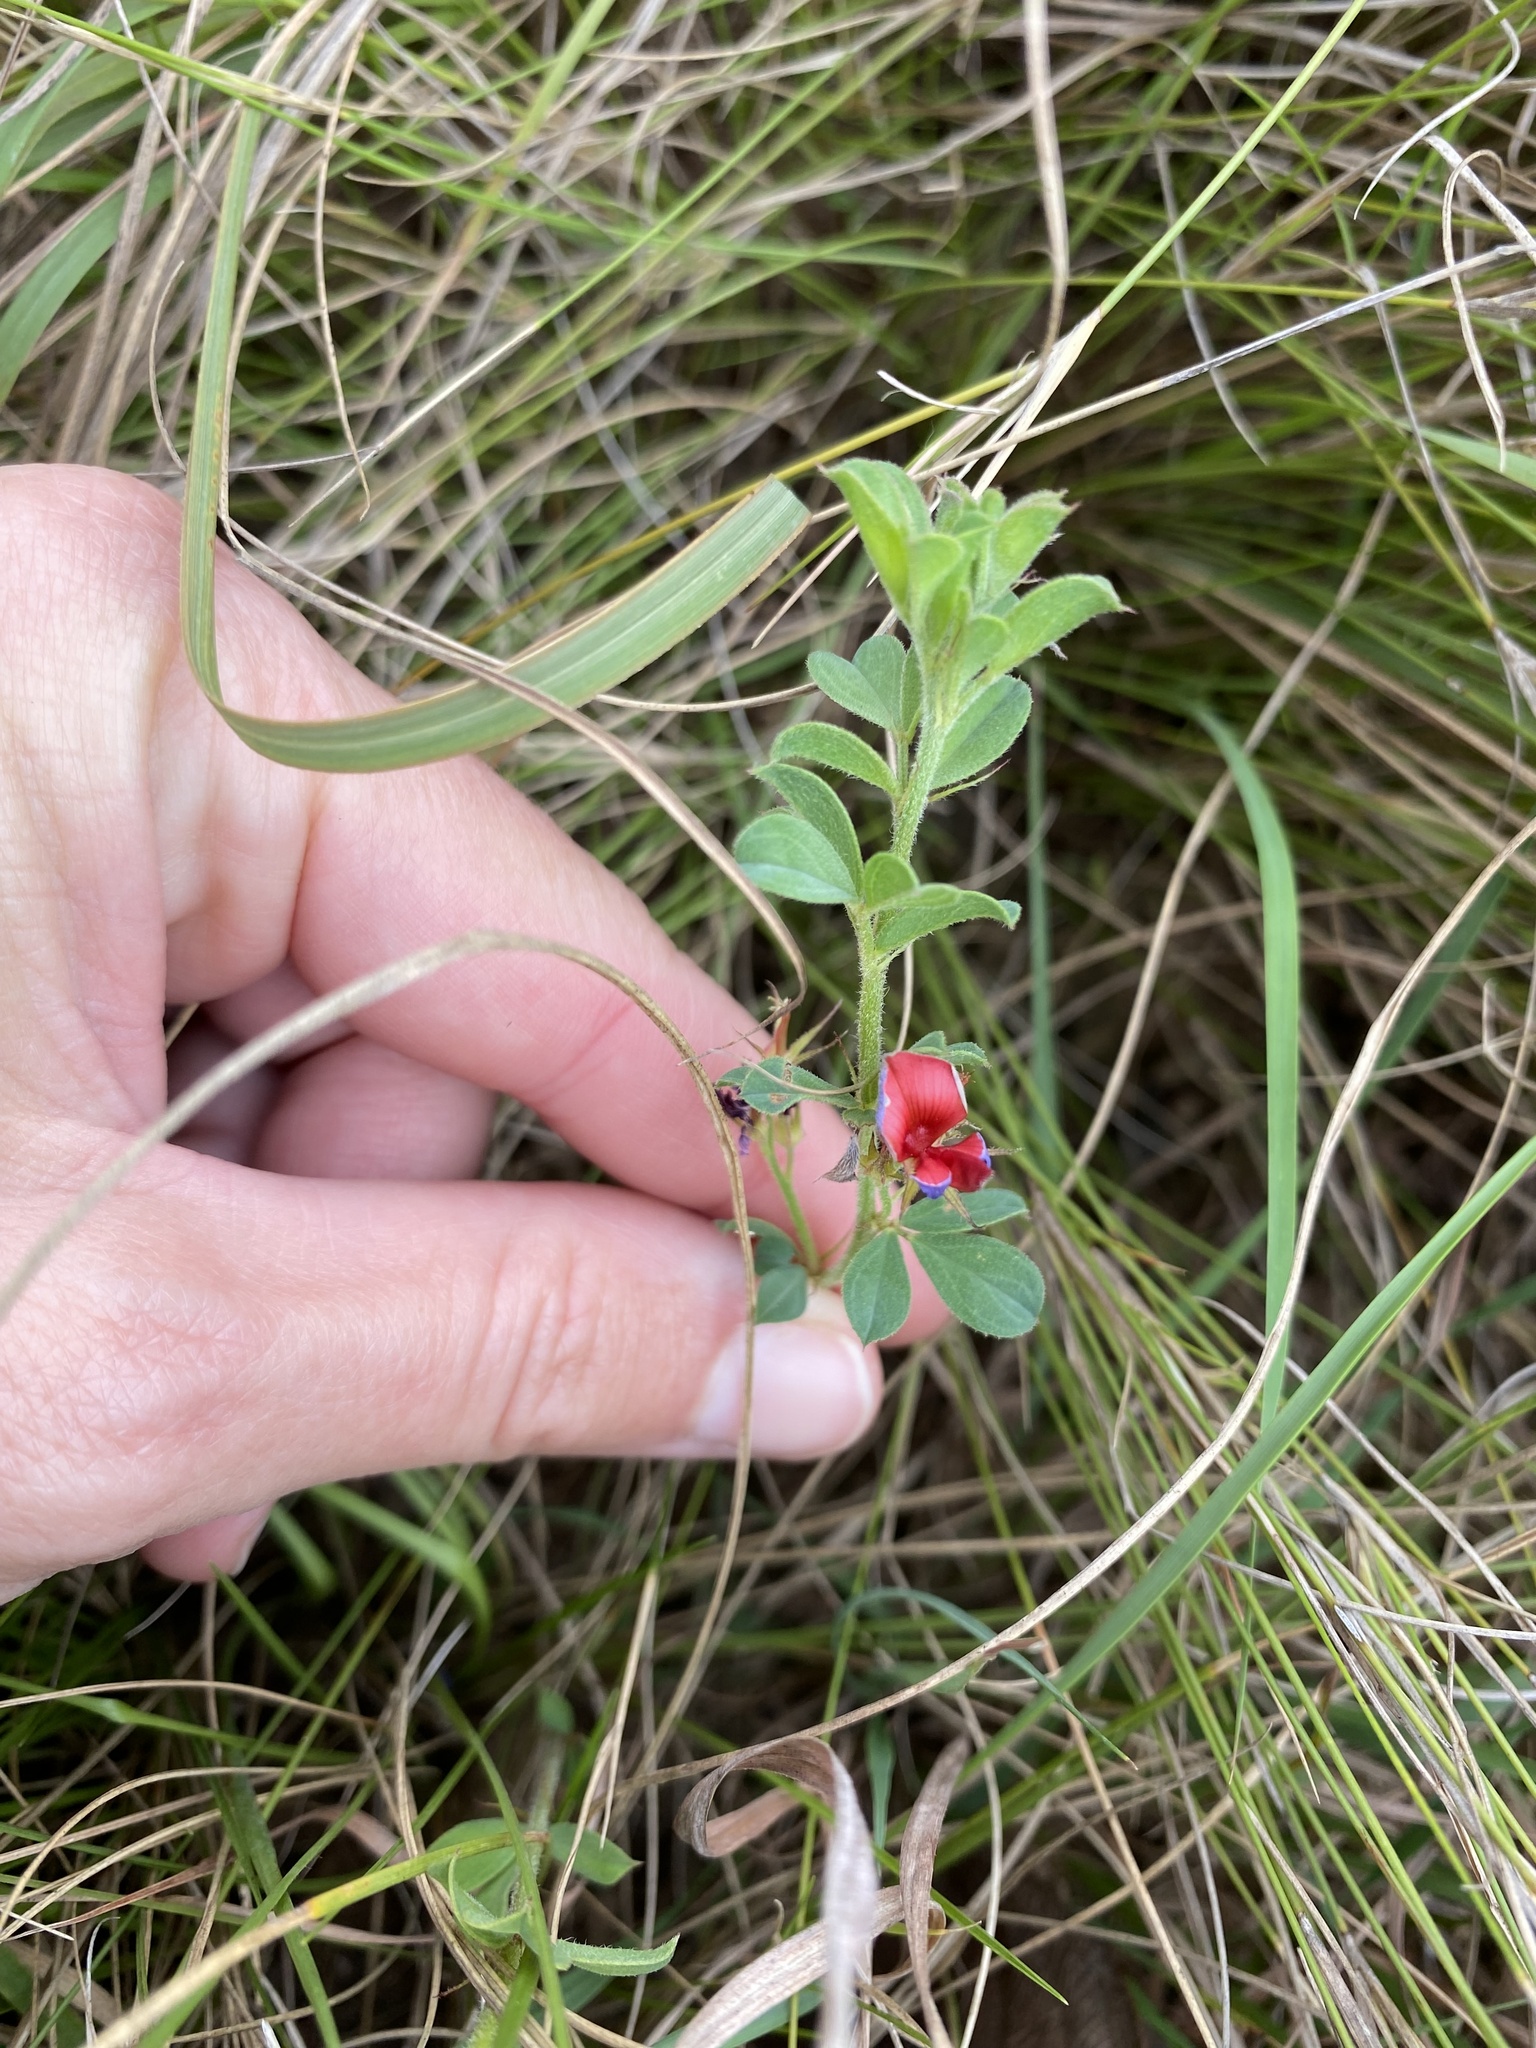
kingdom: Plantae
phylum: Tracheophyta
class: Magnoliopsida
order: Fabales
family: Fabaceae
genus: Indigofera
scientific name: Indigofera crebra
